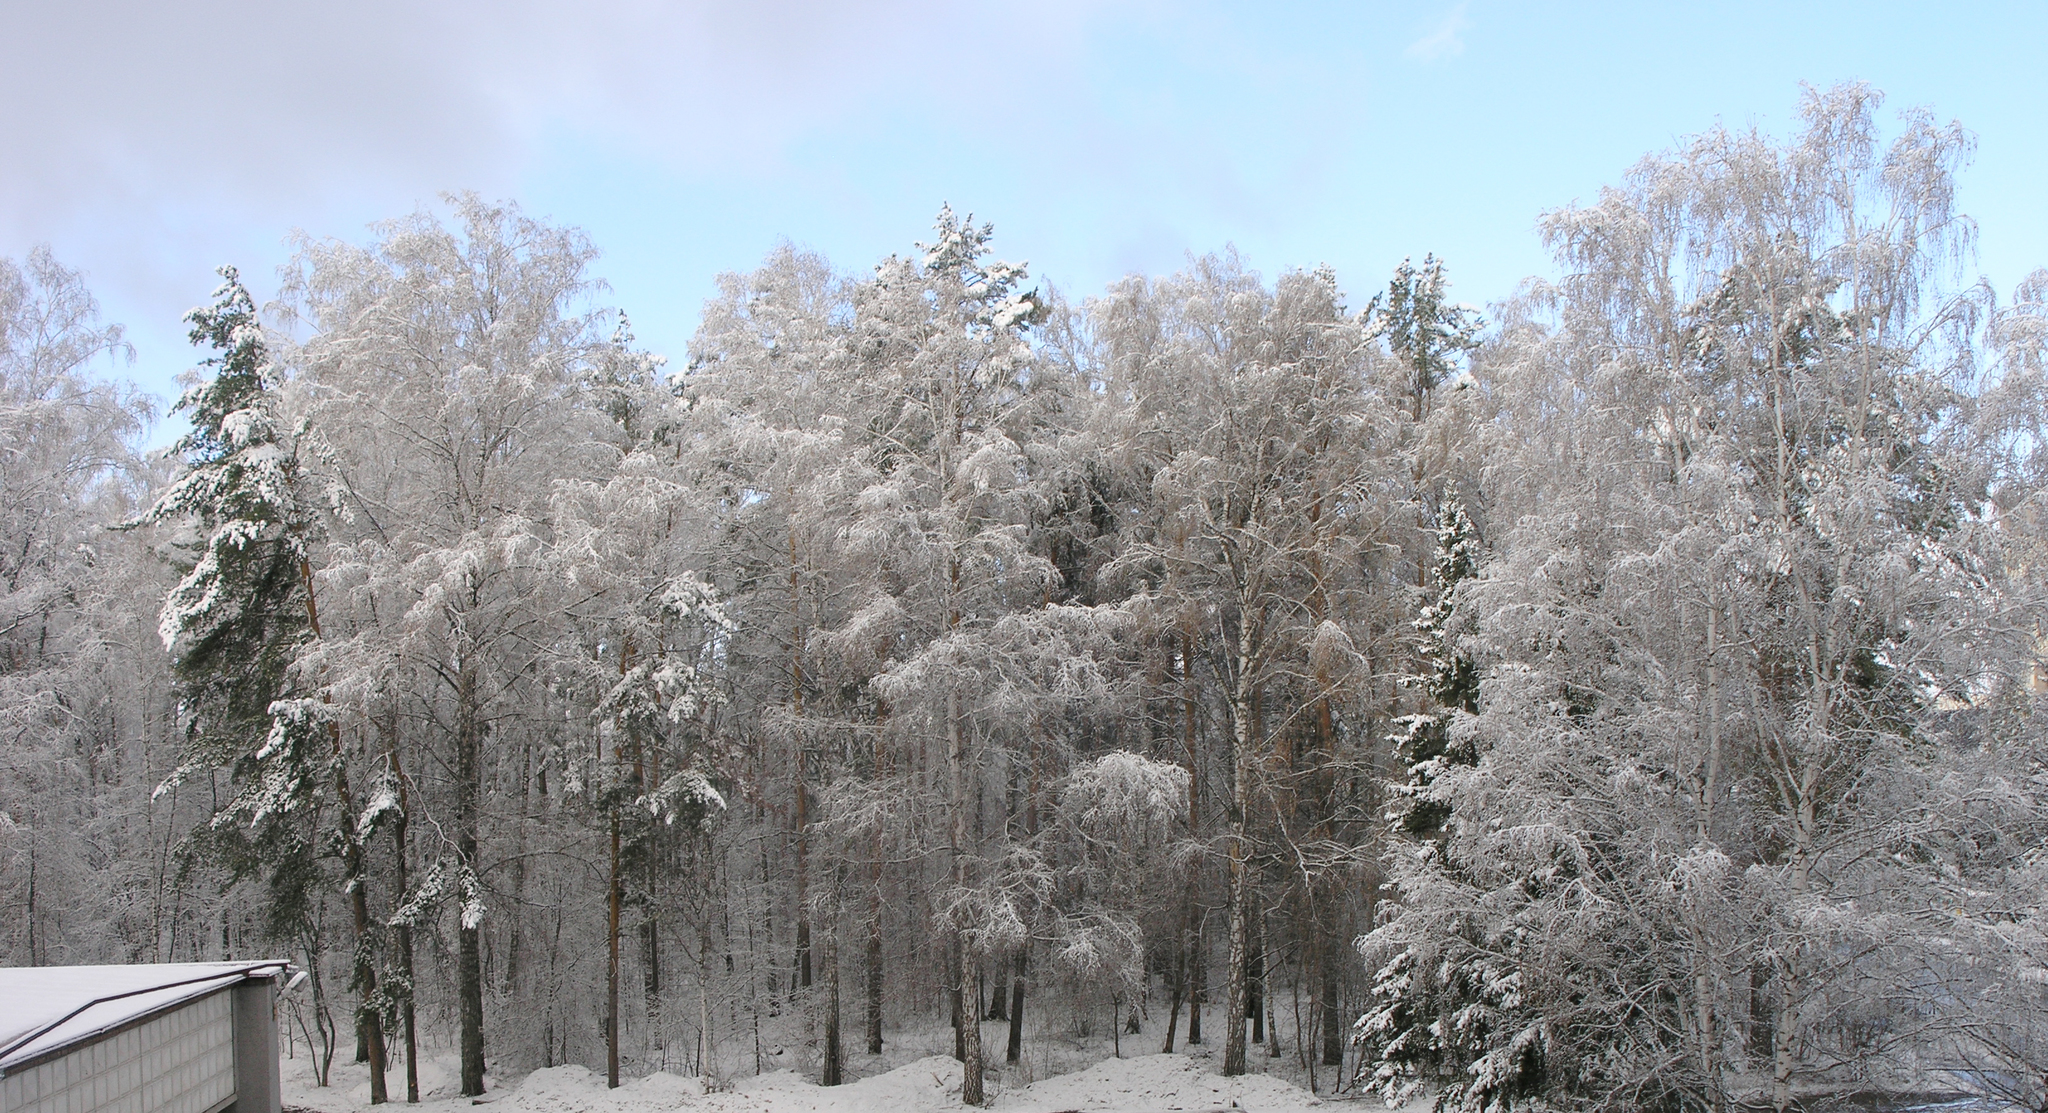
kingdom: Plantae
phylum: Tracheophyta
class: Pinopsida
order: Pinales
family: Pinaceae
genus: Pinus
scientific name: Pinus sylvestris
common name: Scots pine
